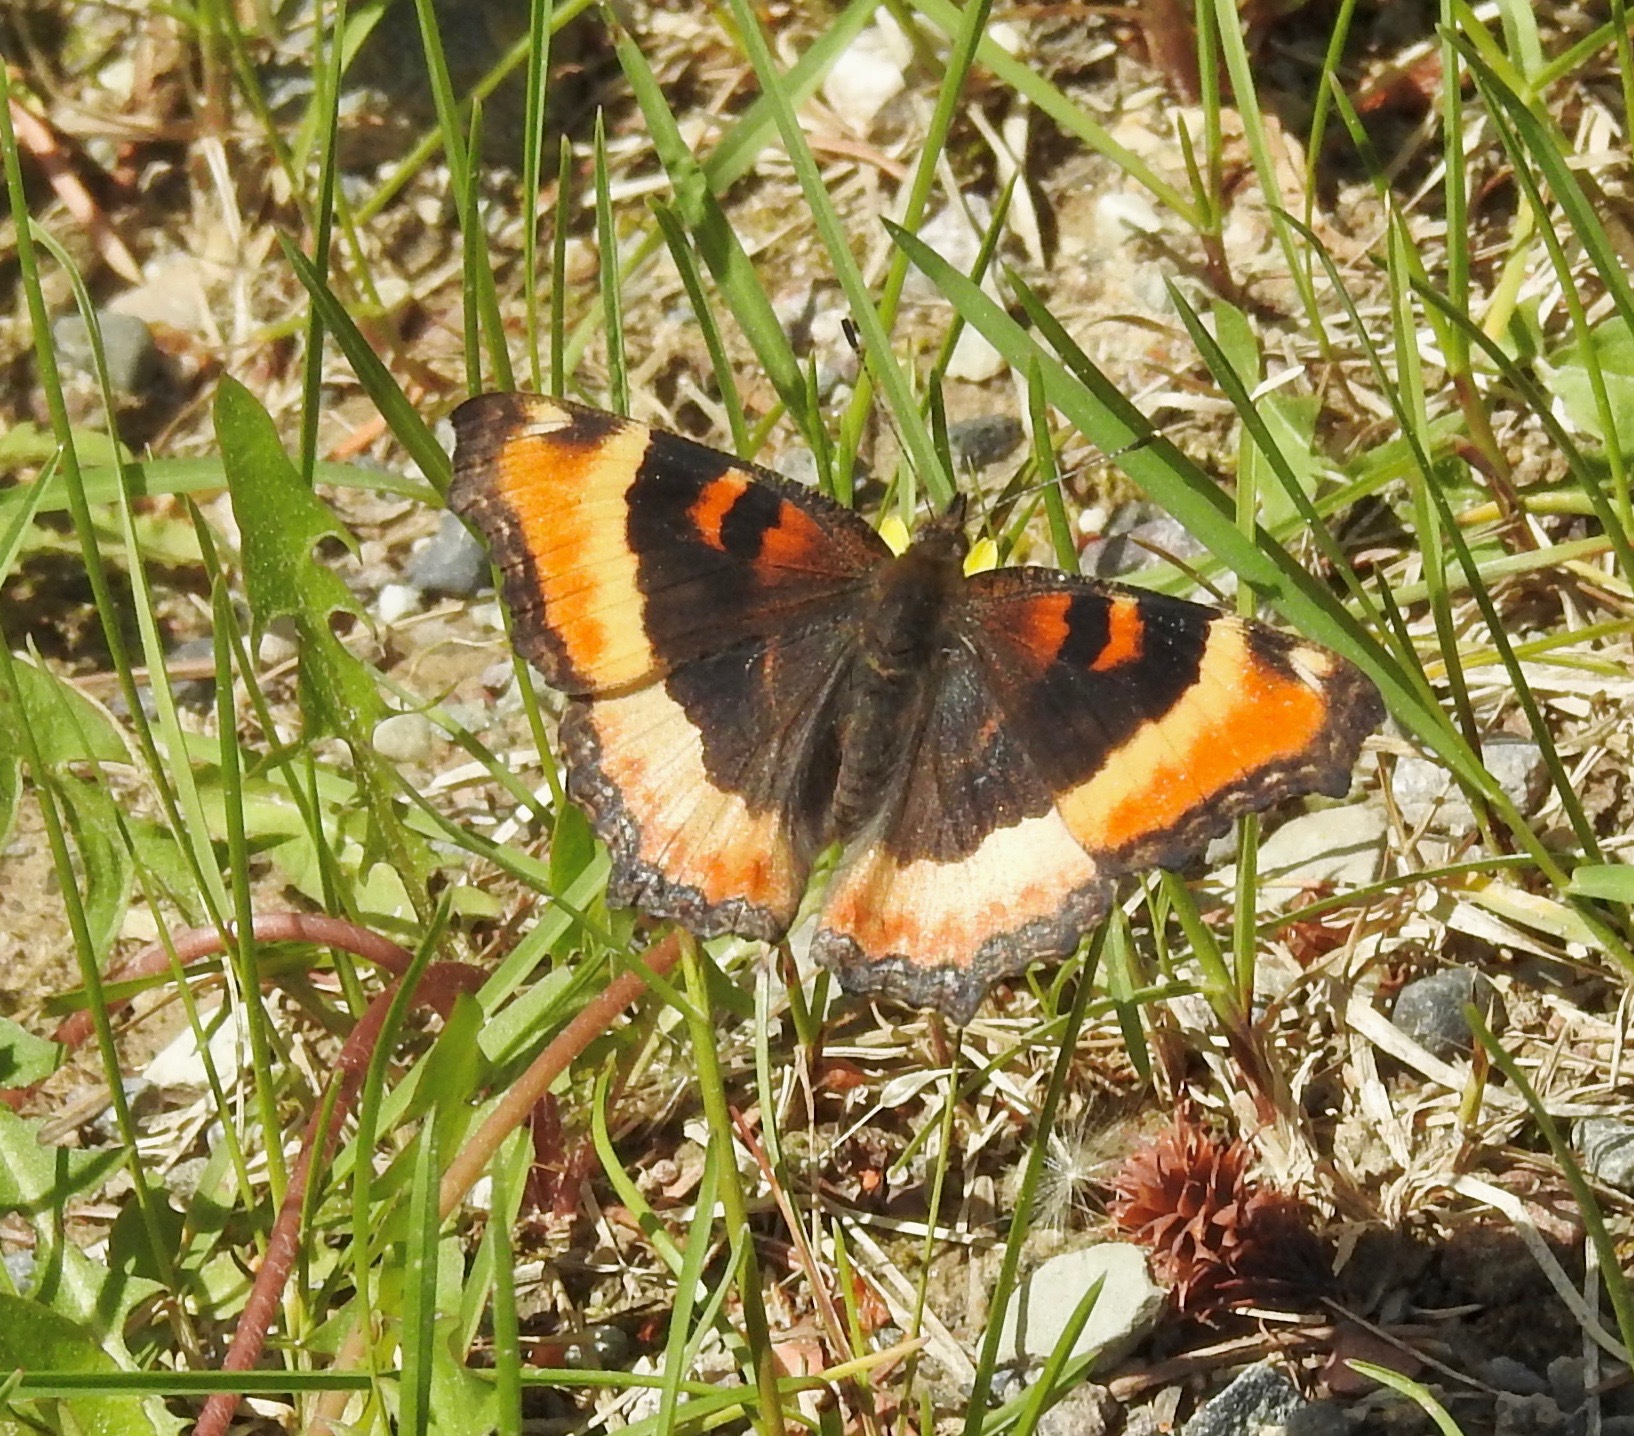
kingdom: Animalia
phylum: Arthropoda
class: Insecta
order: Lepidoptera
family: Nymphalidae
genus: Aglais
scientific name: Aglais milberti
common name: Milbert's tortoiseshell
